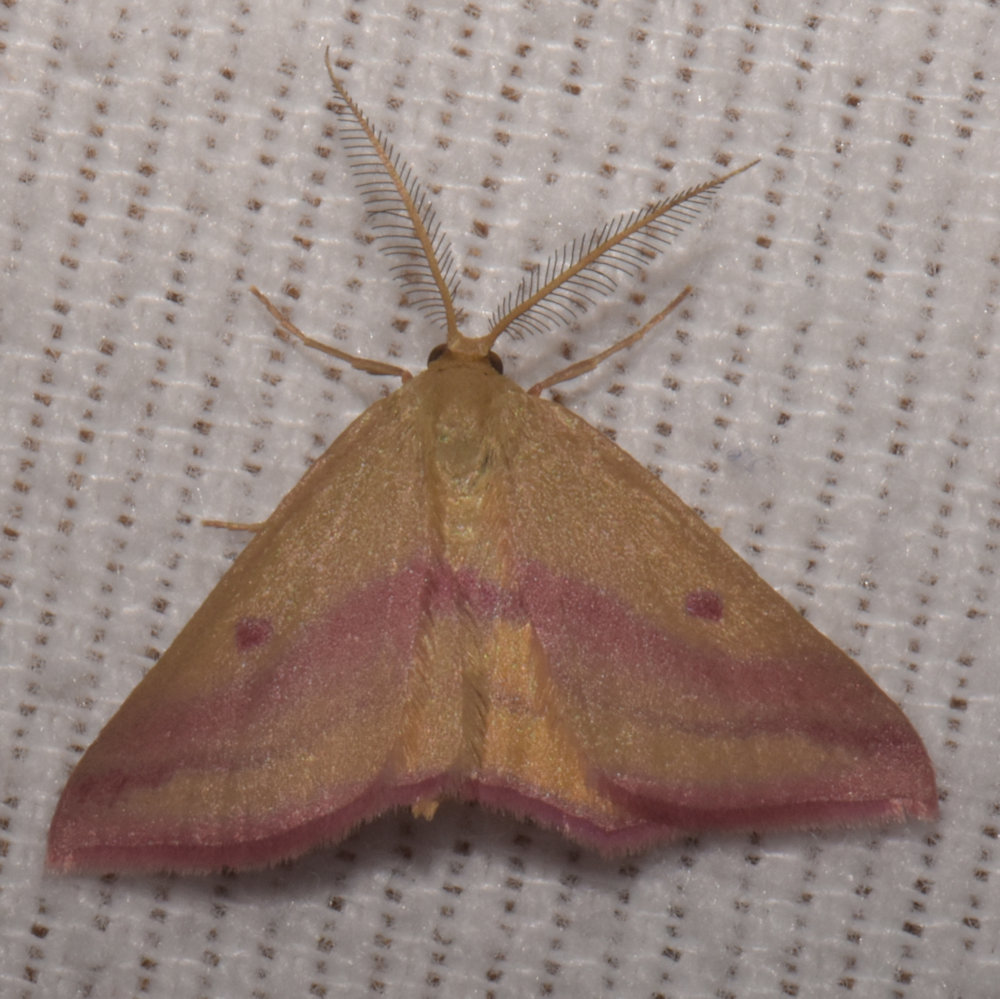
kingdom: Animalia
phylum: Arthropoda
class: Insecta
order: Lepidoptera
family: Geometridae
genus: Haematopis
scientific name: Haematopis grataria
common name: Chickweed geometer
